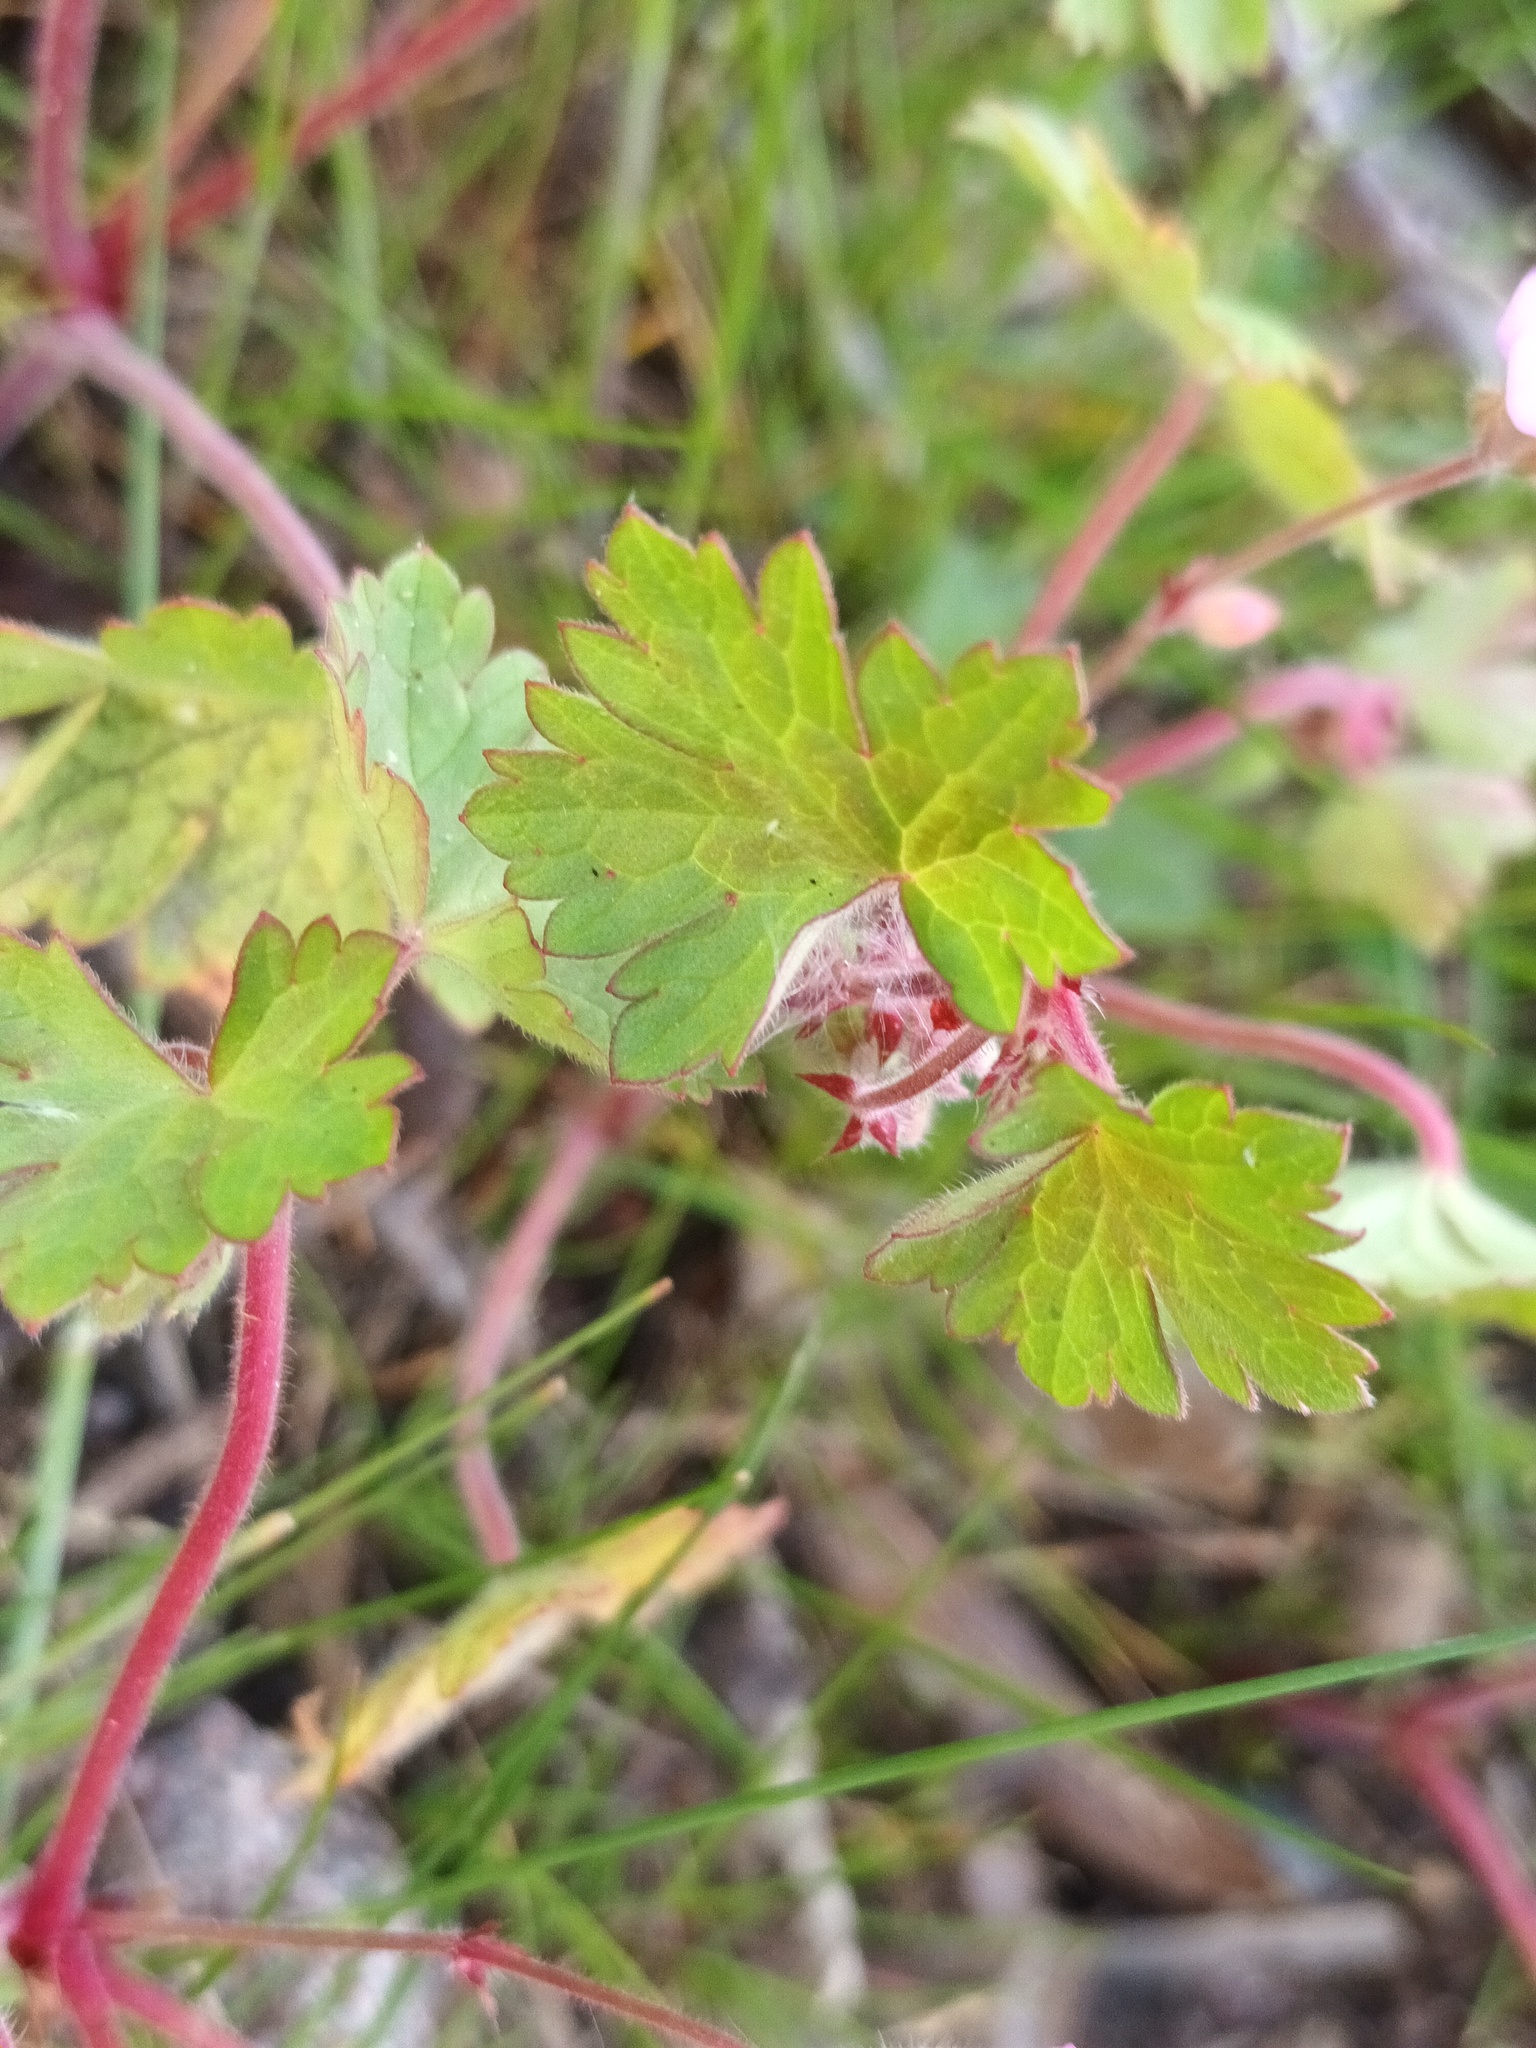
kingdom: Plantae
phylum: Tracheophyta
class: Magnoliopsida
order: Geraniales
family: Geraniaceae
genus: Geranium
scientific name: Geranium rotundifolium
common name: Round-leaved crane's-bill
